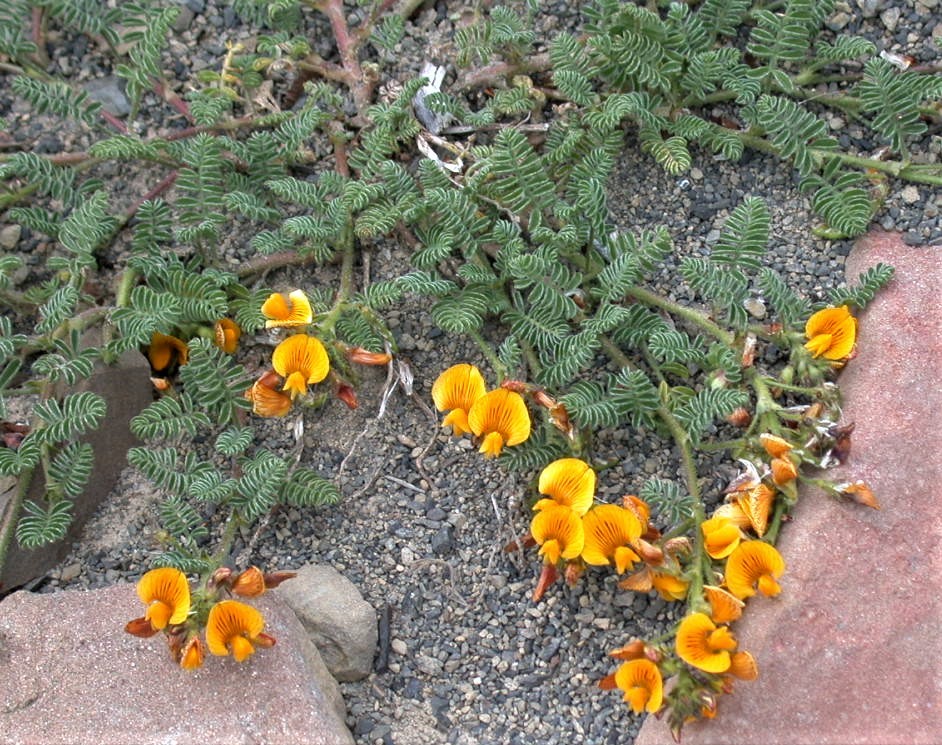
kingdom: Plantae
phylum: Tracheophyta
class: Magnoliopsida
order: Fabales
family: Fabaceae
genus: Adesmia
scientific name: Adesmia corymbosa
